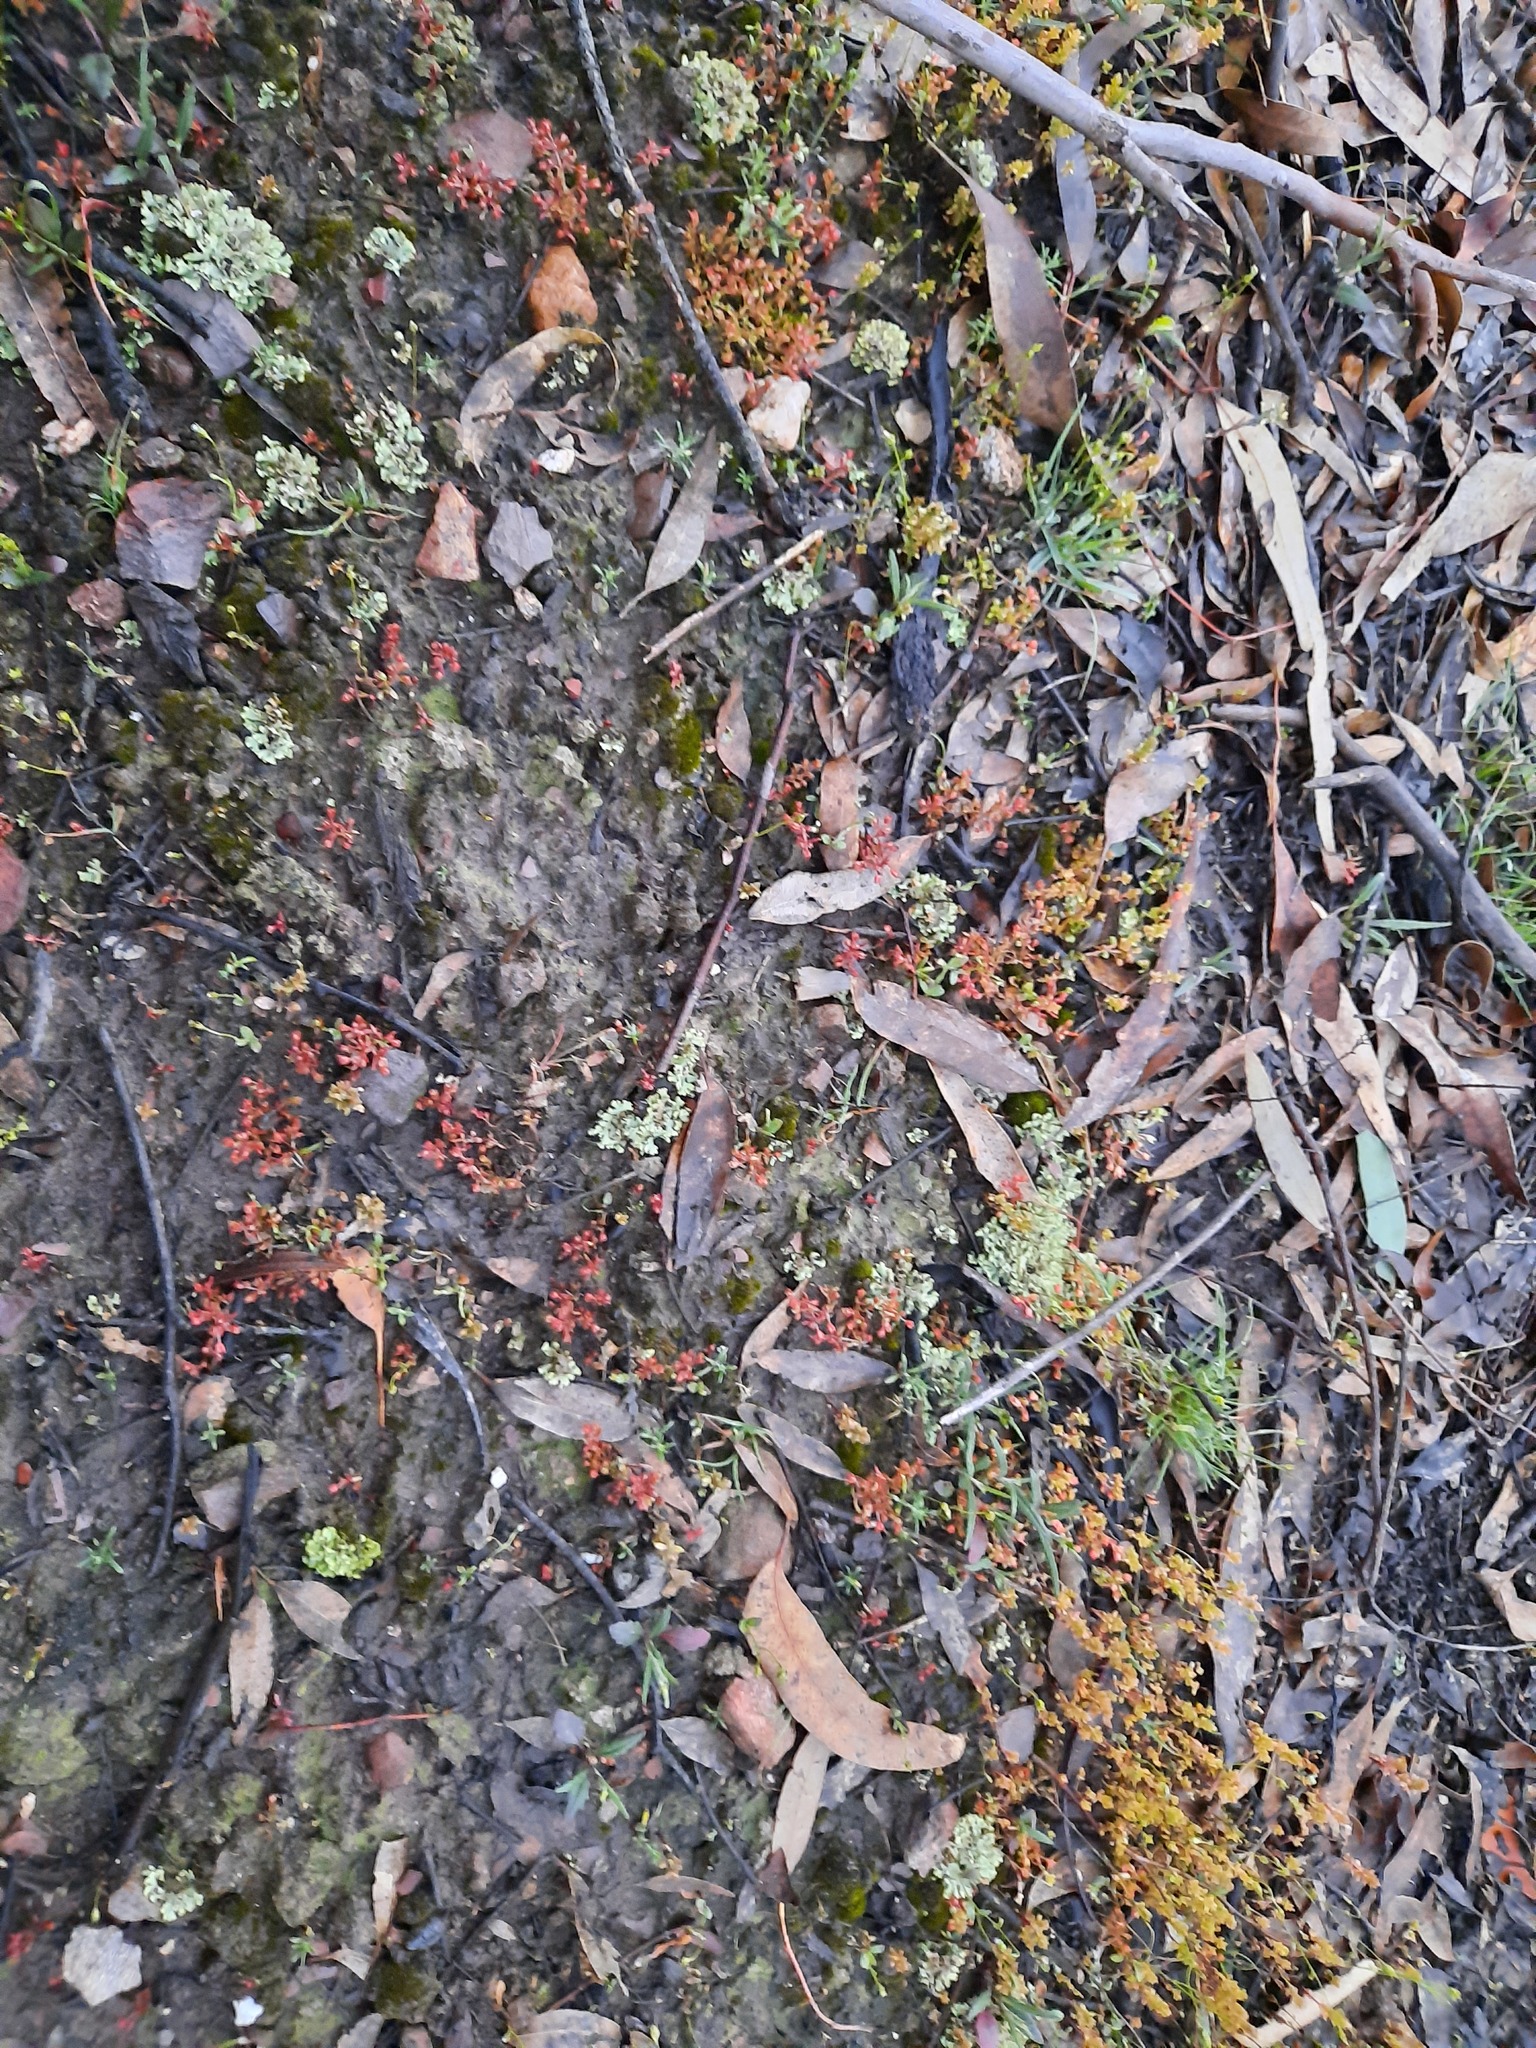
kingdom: Plantae
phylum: Tracheophyta
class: Magnoliopsida
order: Saxifragales
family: Crassulaceae
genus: Crassula
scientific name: Crassula decumbens
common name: Scilly pigmyweed
